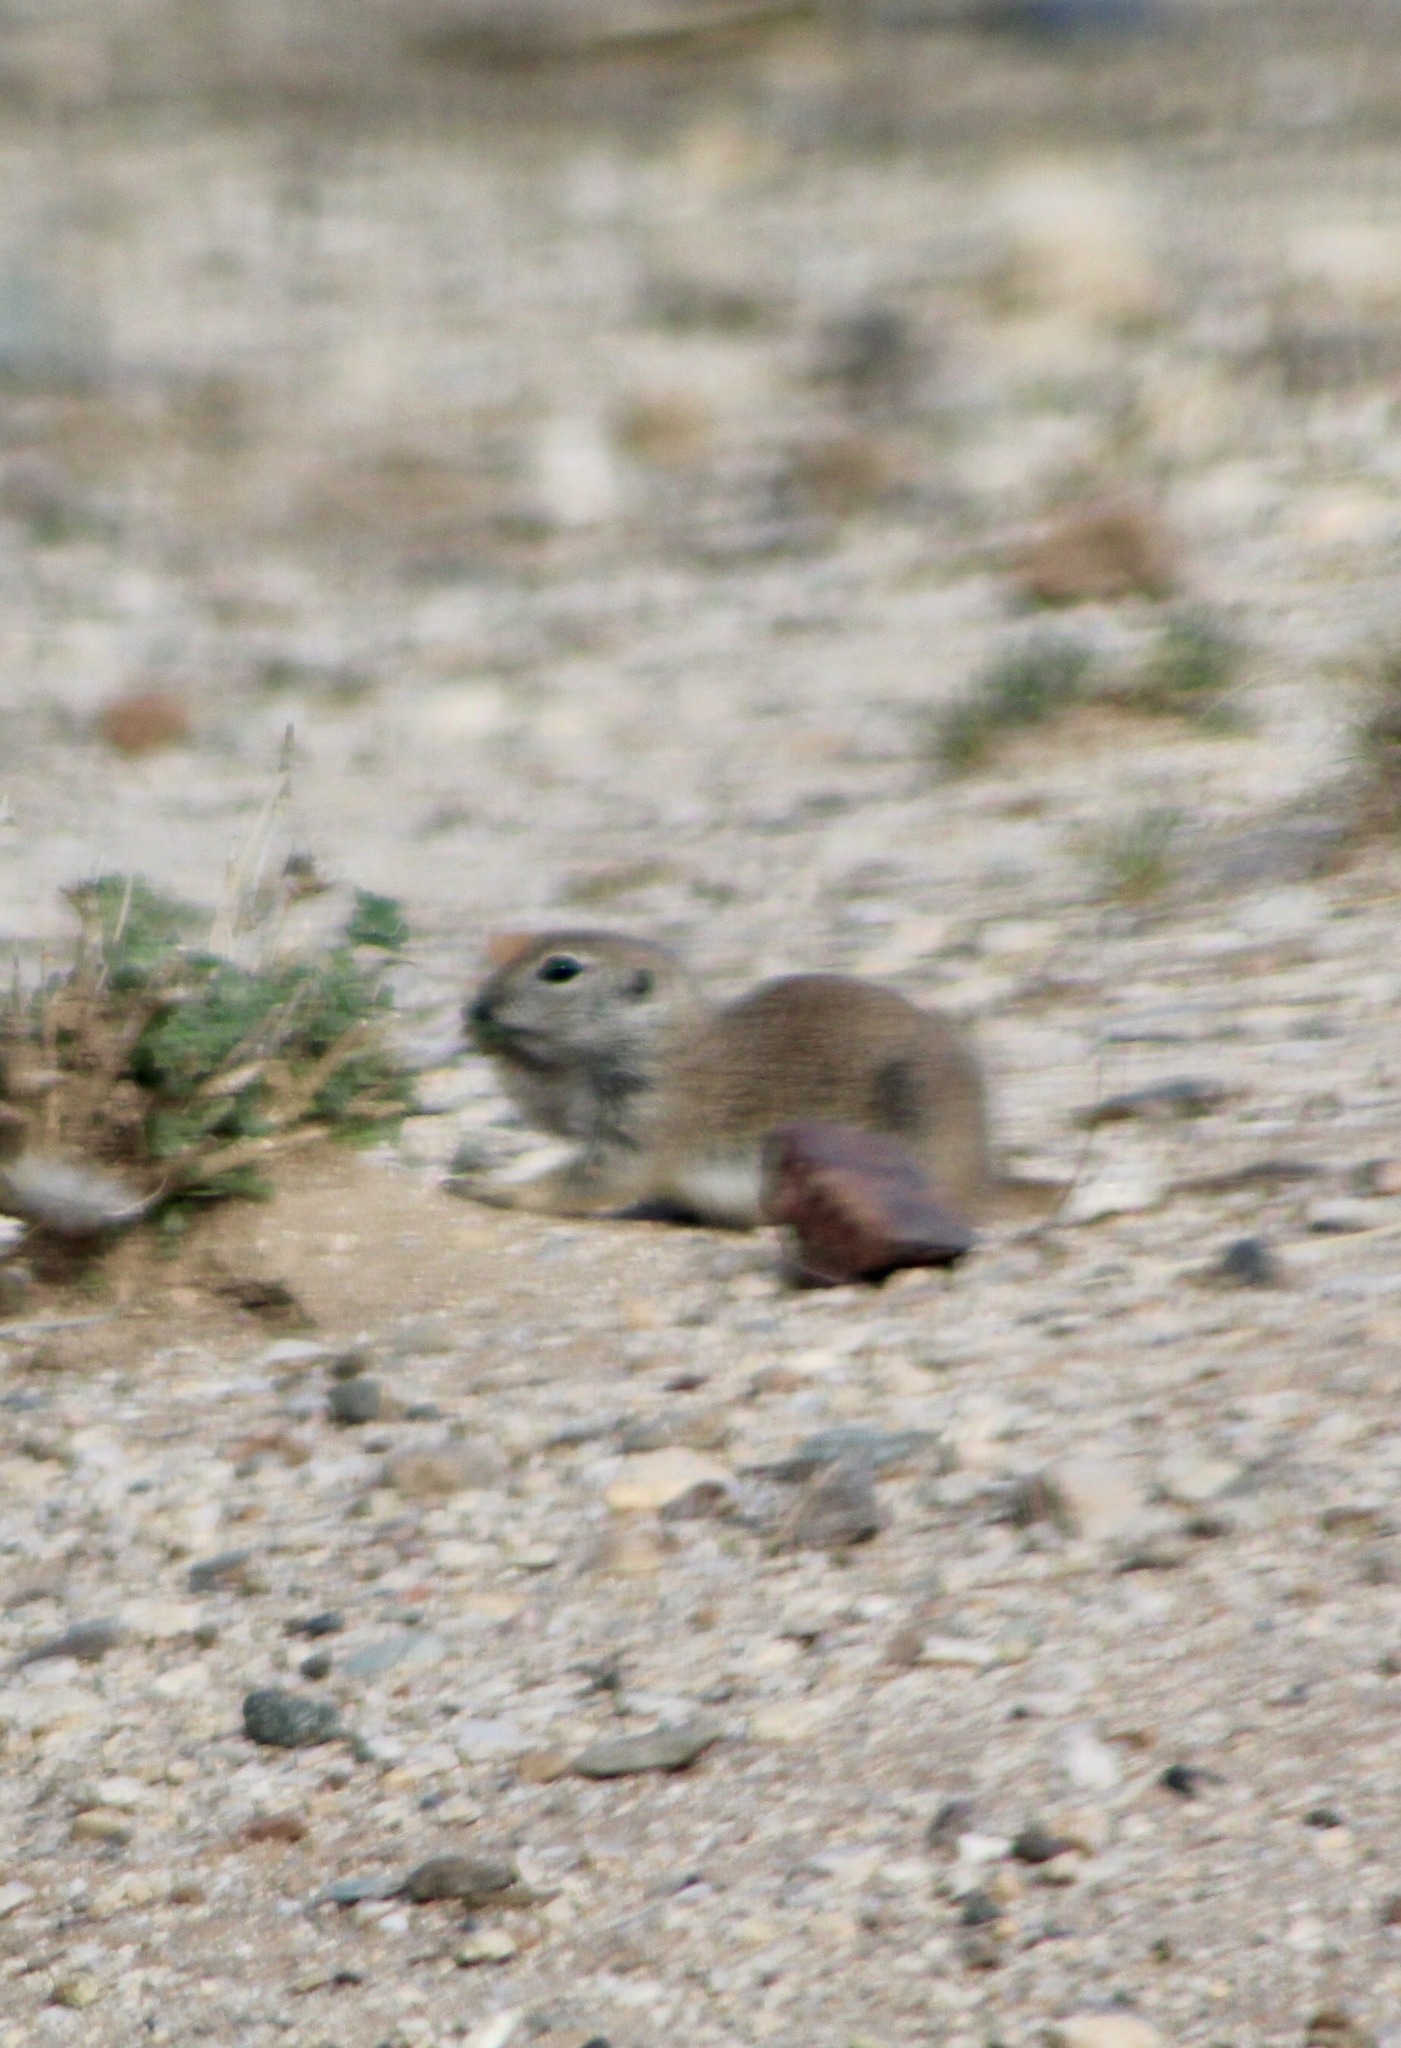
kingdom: Animalia
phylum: Chordata
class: Mammalia
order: Rodentia
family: Sciuridae
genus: Xerospermophilus
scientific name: Xerospermophilus tereticaudus
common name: Round-tailed ground squirrel
